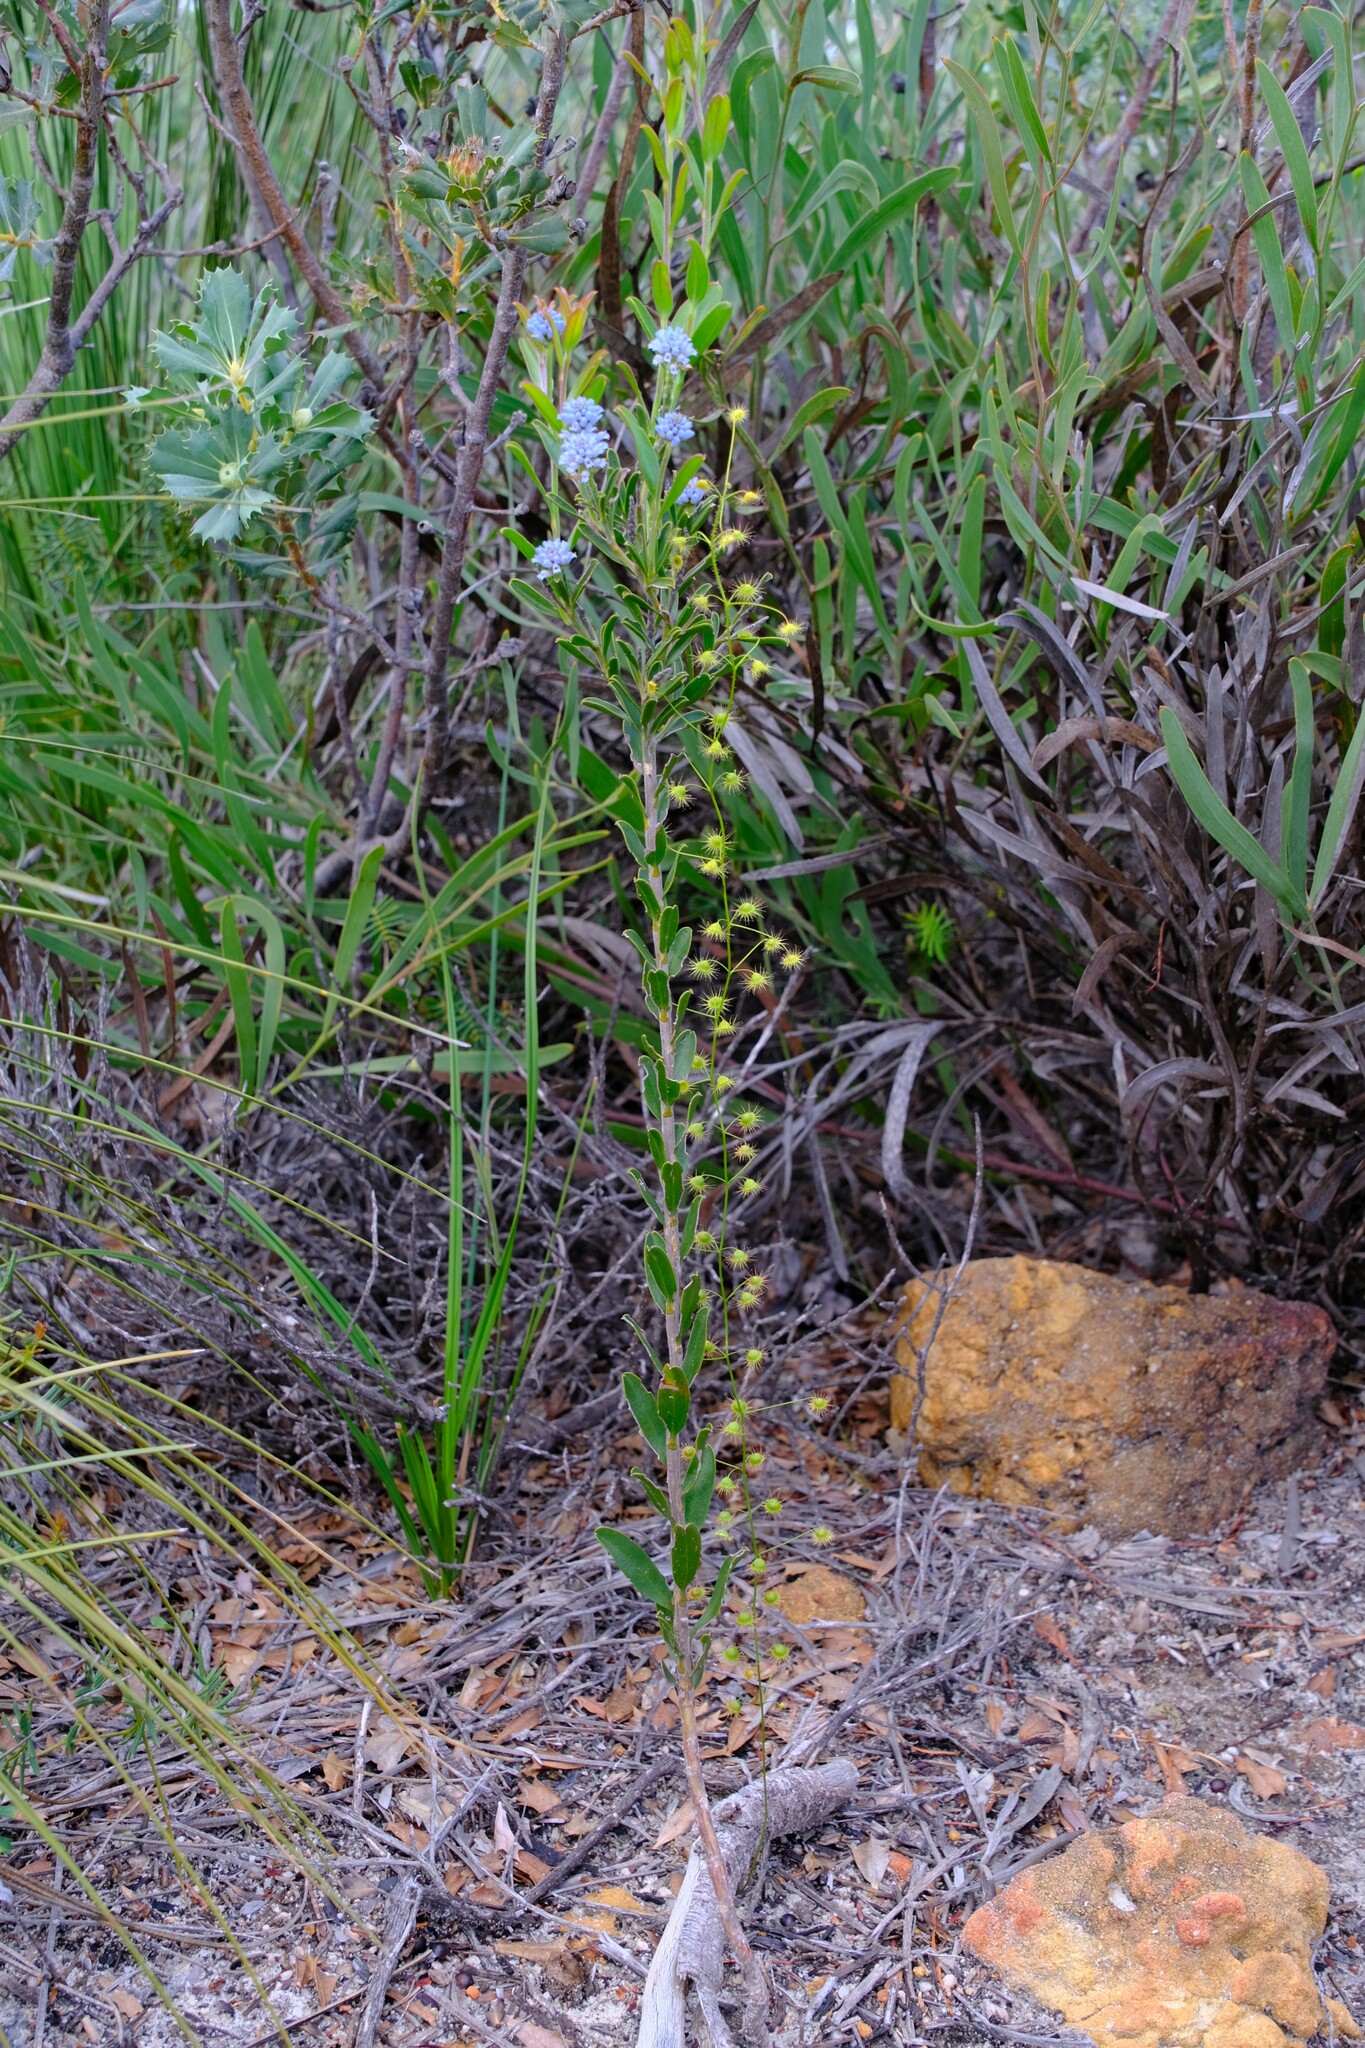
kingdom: Plantae
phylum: Tracheophyta
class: Magnoliopsida
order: Caryophyllales
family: Droseraceae
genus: Drosera
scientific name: Drosera macrantha
